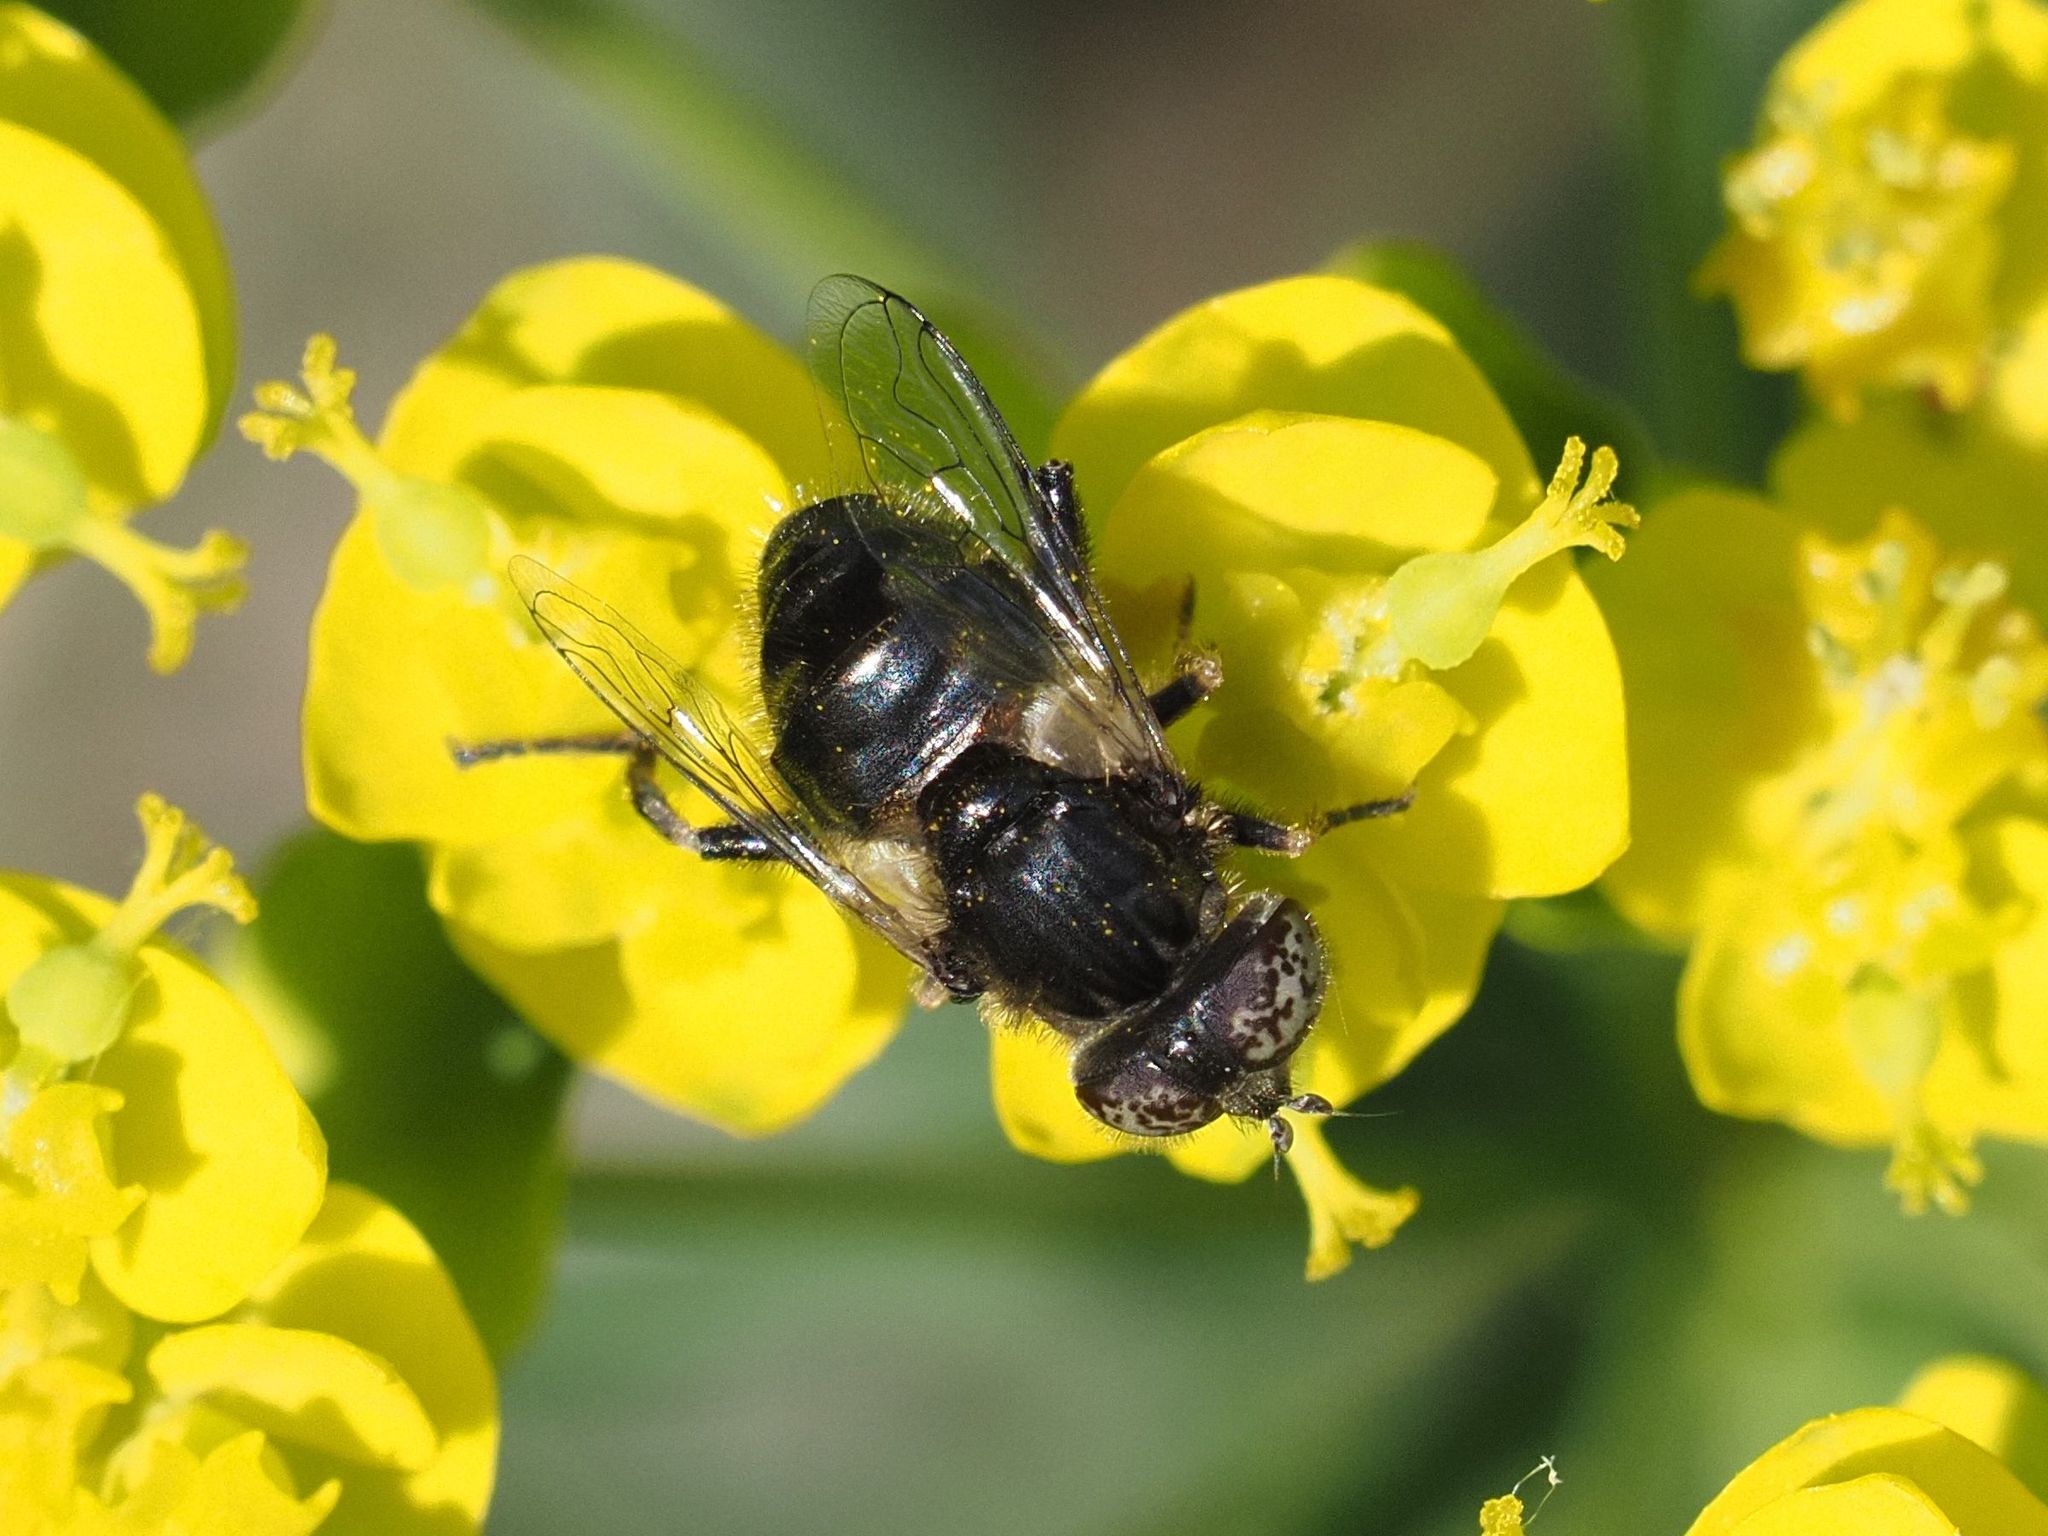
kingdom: Animalia
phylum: Arthropoda
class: Insecta
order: Diptera
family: Syrphidae
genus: Eristalinus
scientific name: Eristalinus sepulchralis
